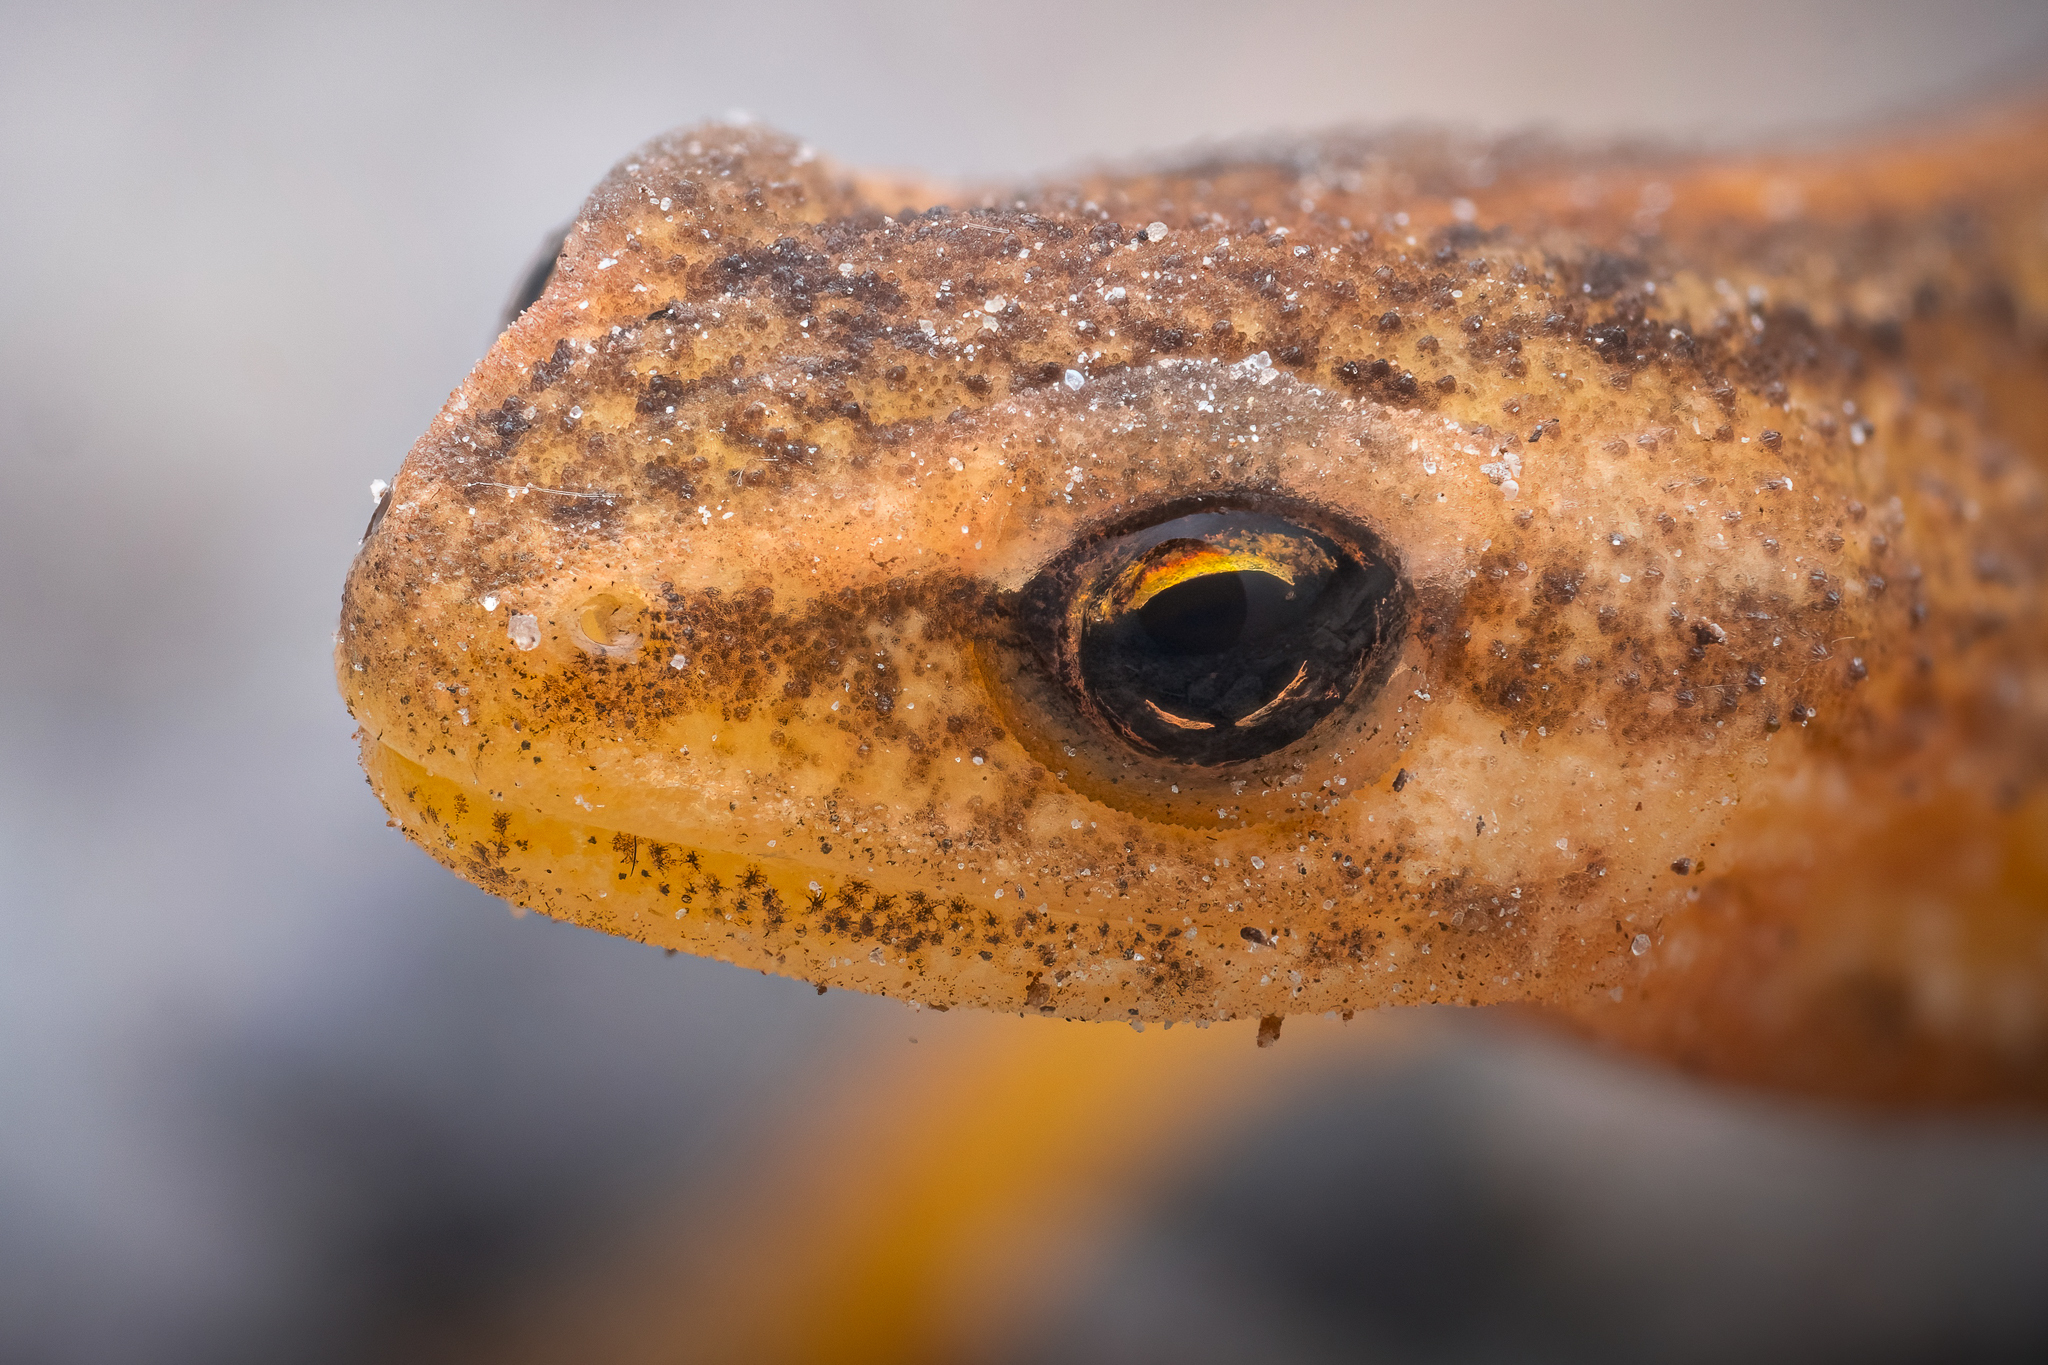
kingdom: Animalia
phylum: Chordata
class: Amphibia
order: Caudata
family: Salamandridae
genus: Lissotriton
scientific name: Lissotriton vulgaris
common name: Smooth newt
